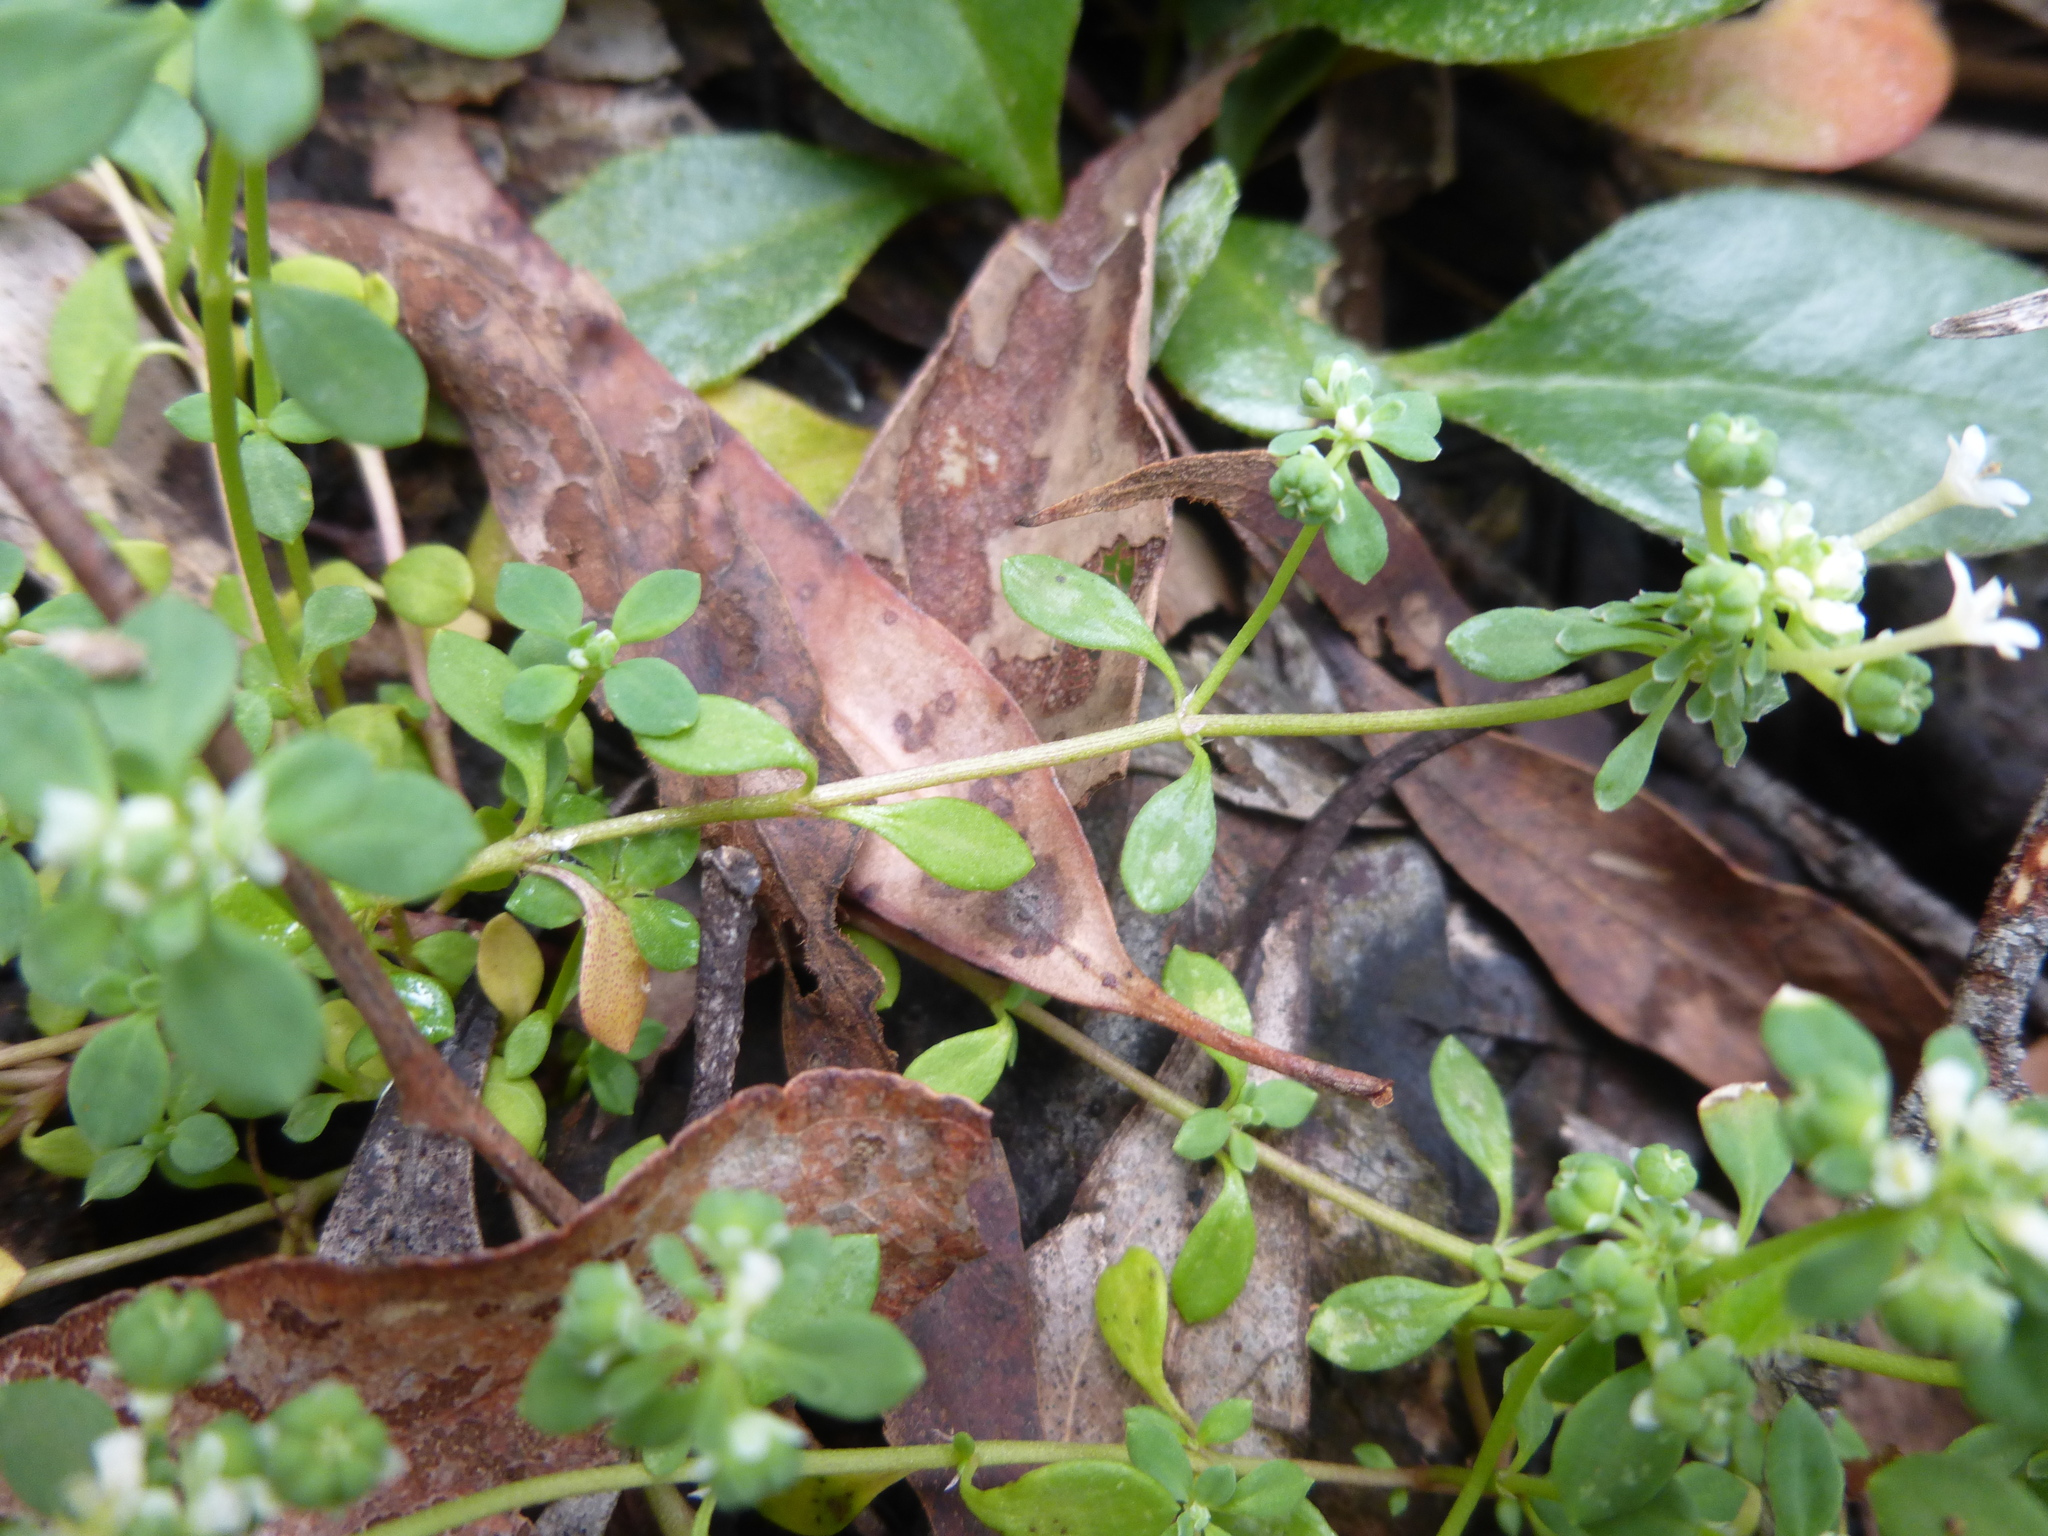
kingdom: Plantae
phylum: Tracheophyta
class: Magnoliopsida
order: Malpighiales
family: Phyllanthaceae
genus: Poranthera
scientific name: Poranthera microphylla
